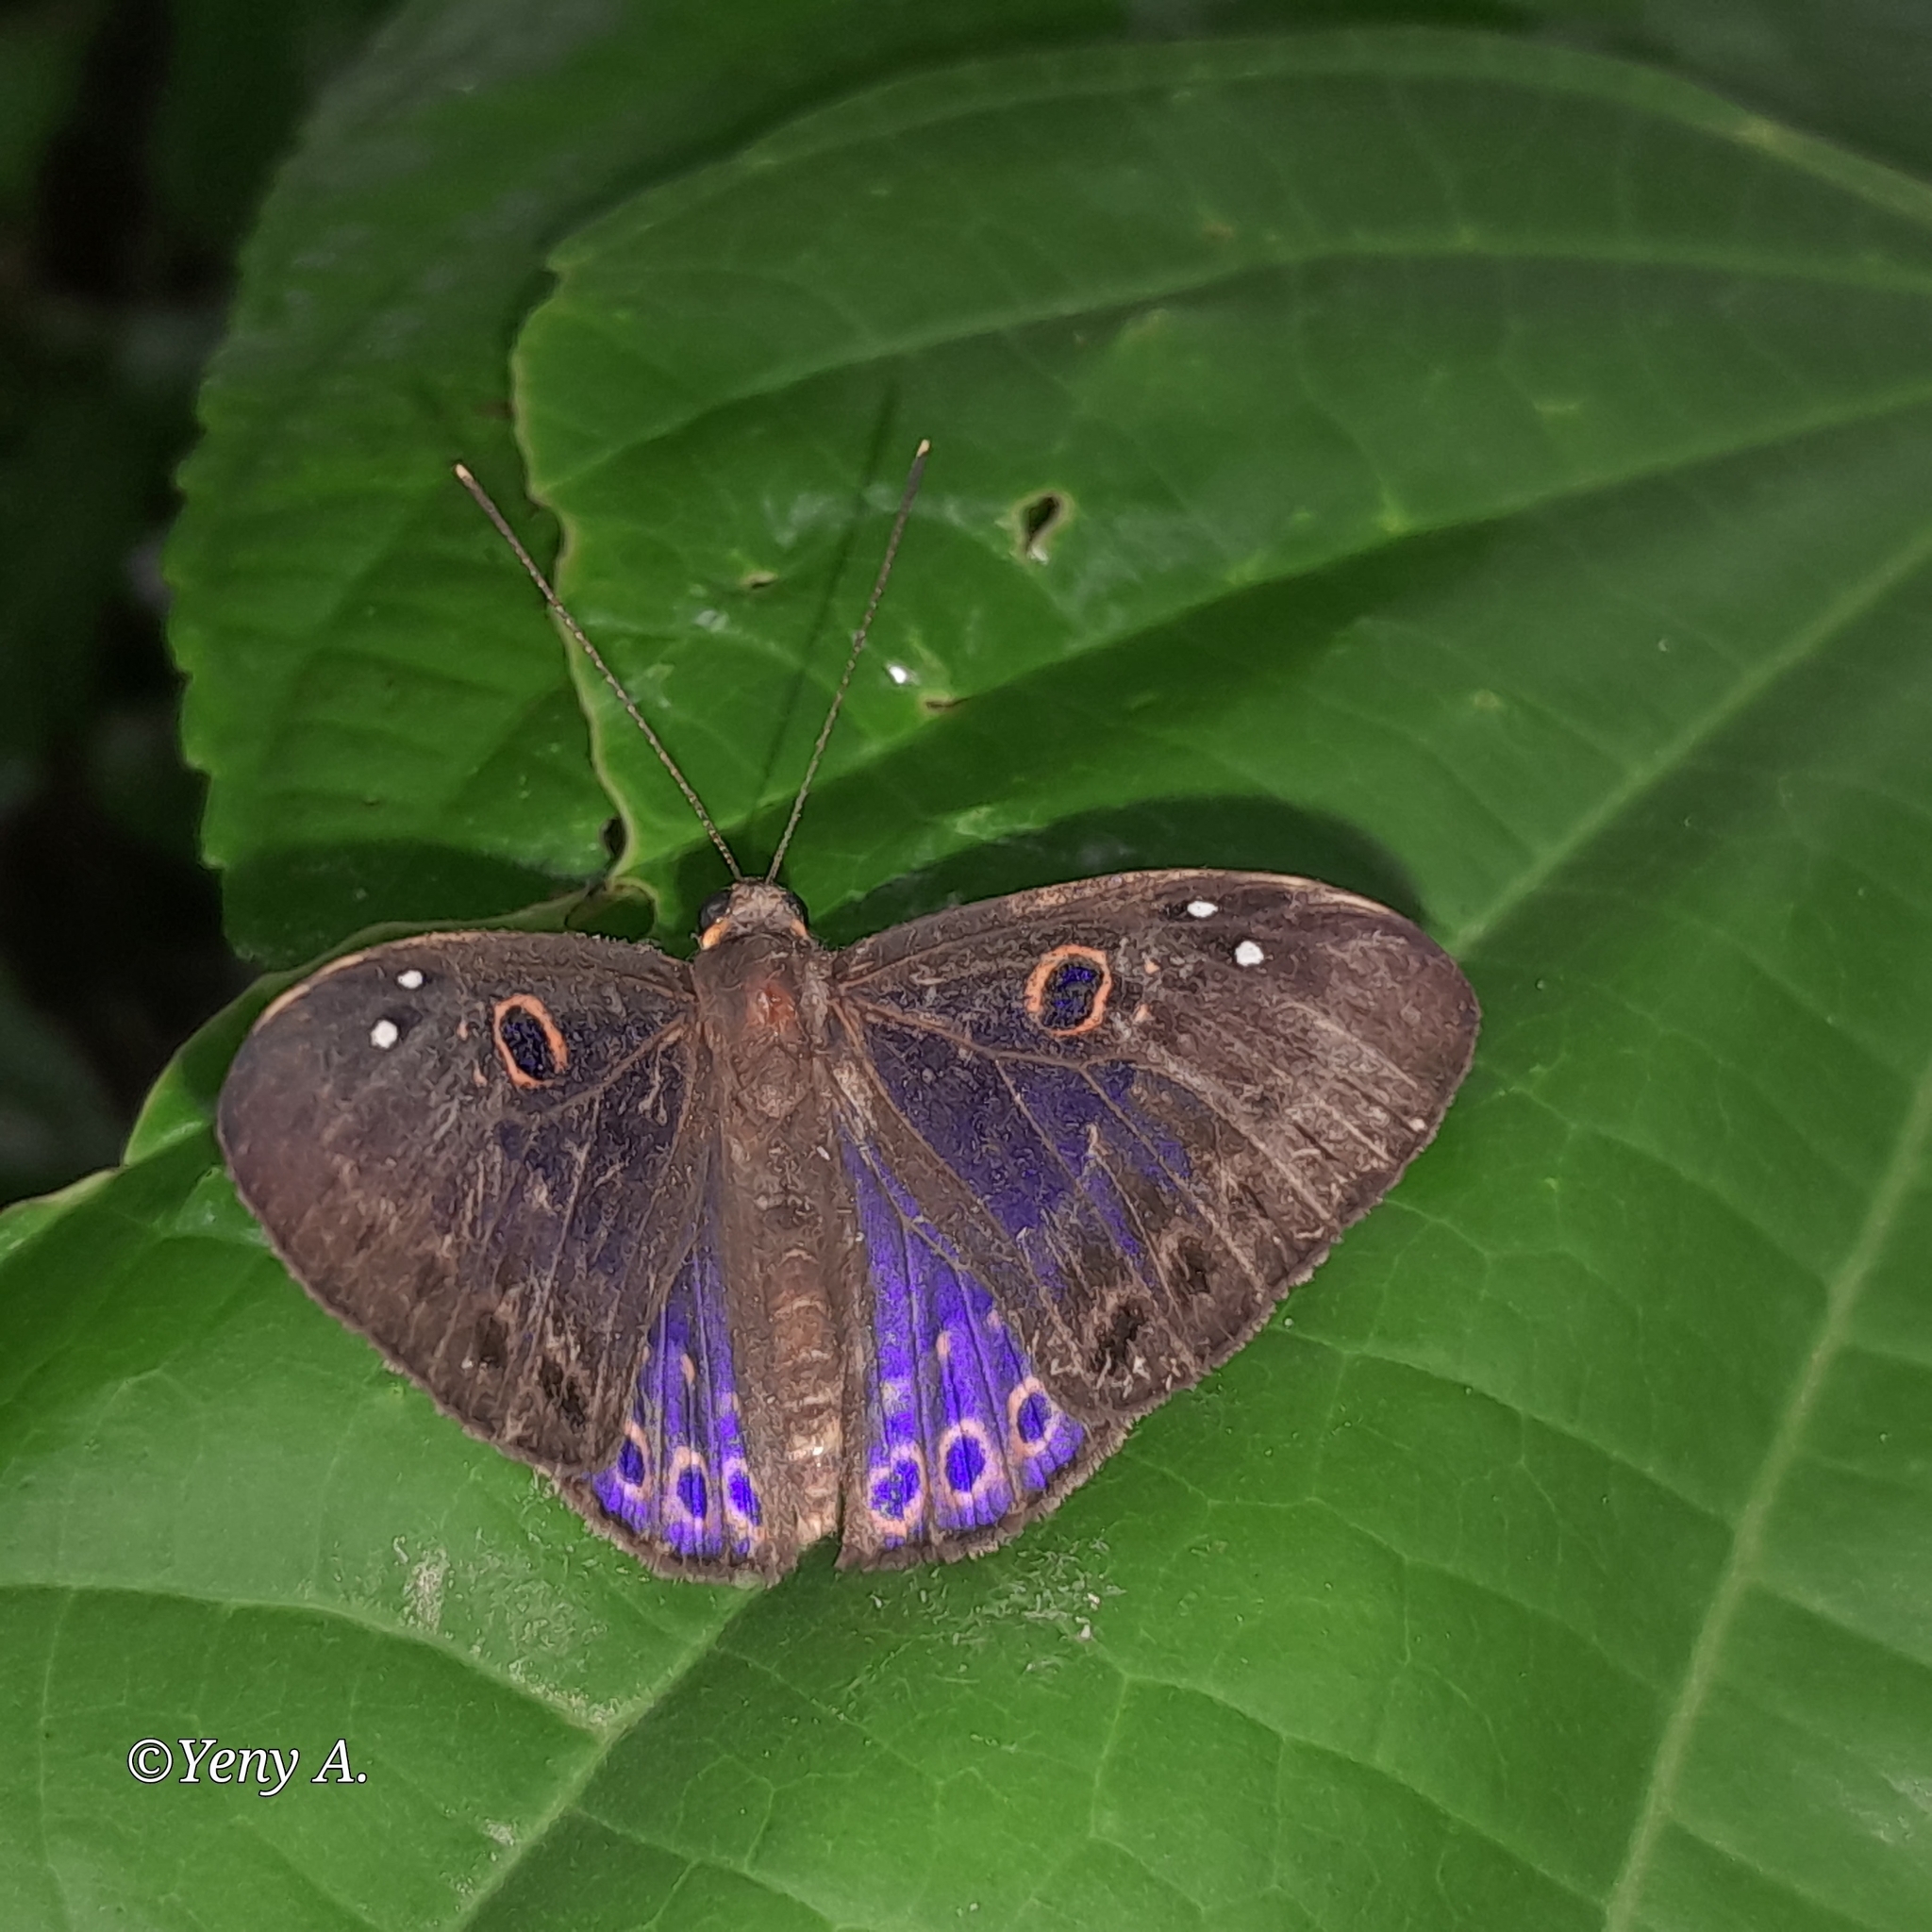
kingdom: Animalia
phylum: Cnidaria
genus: Eurybia
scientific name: Eurybia lamia
